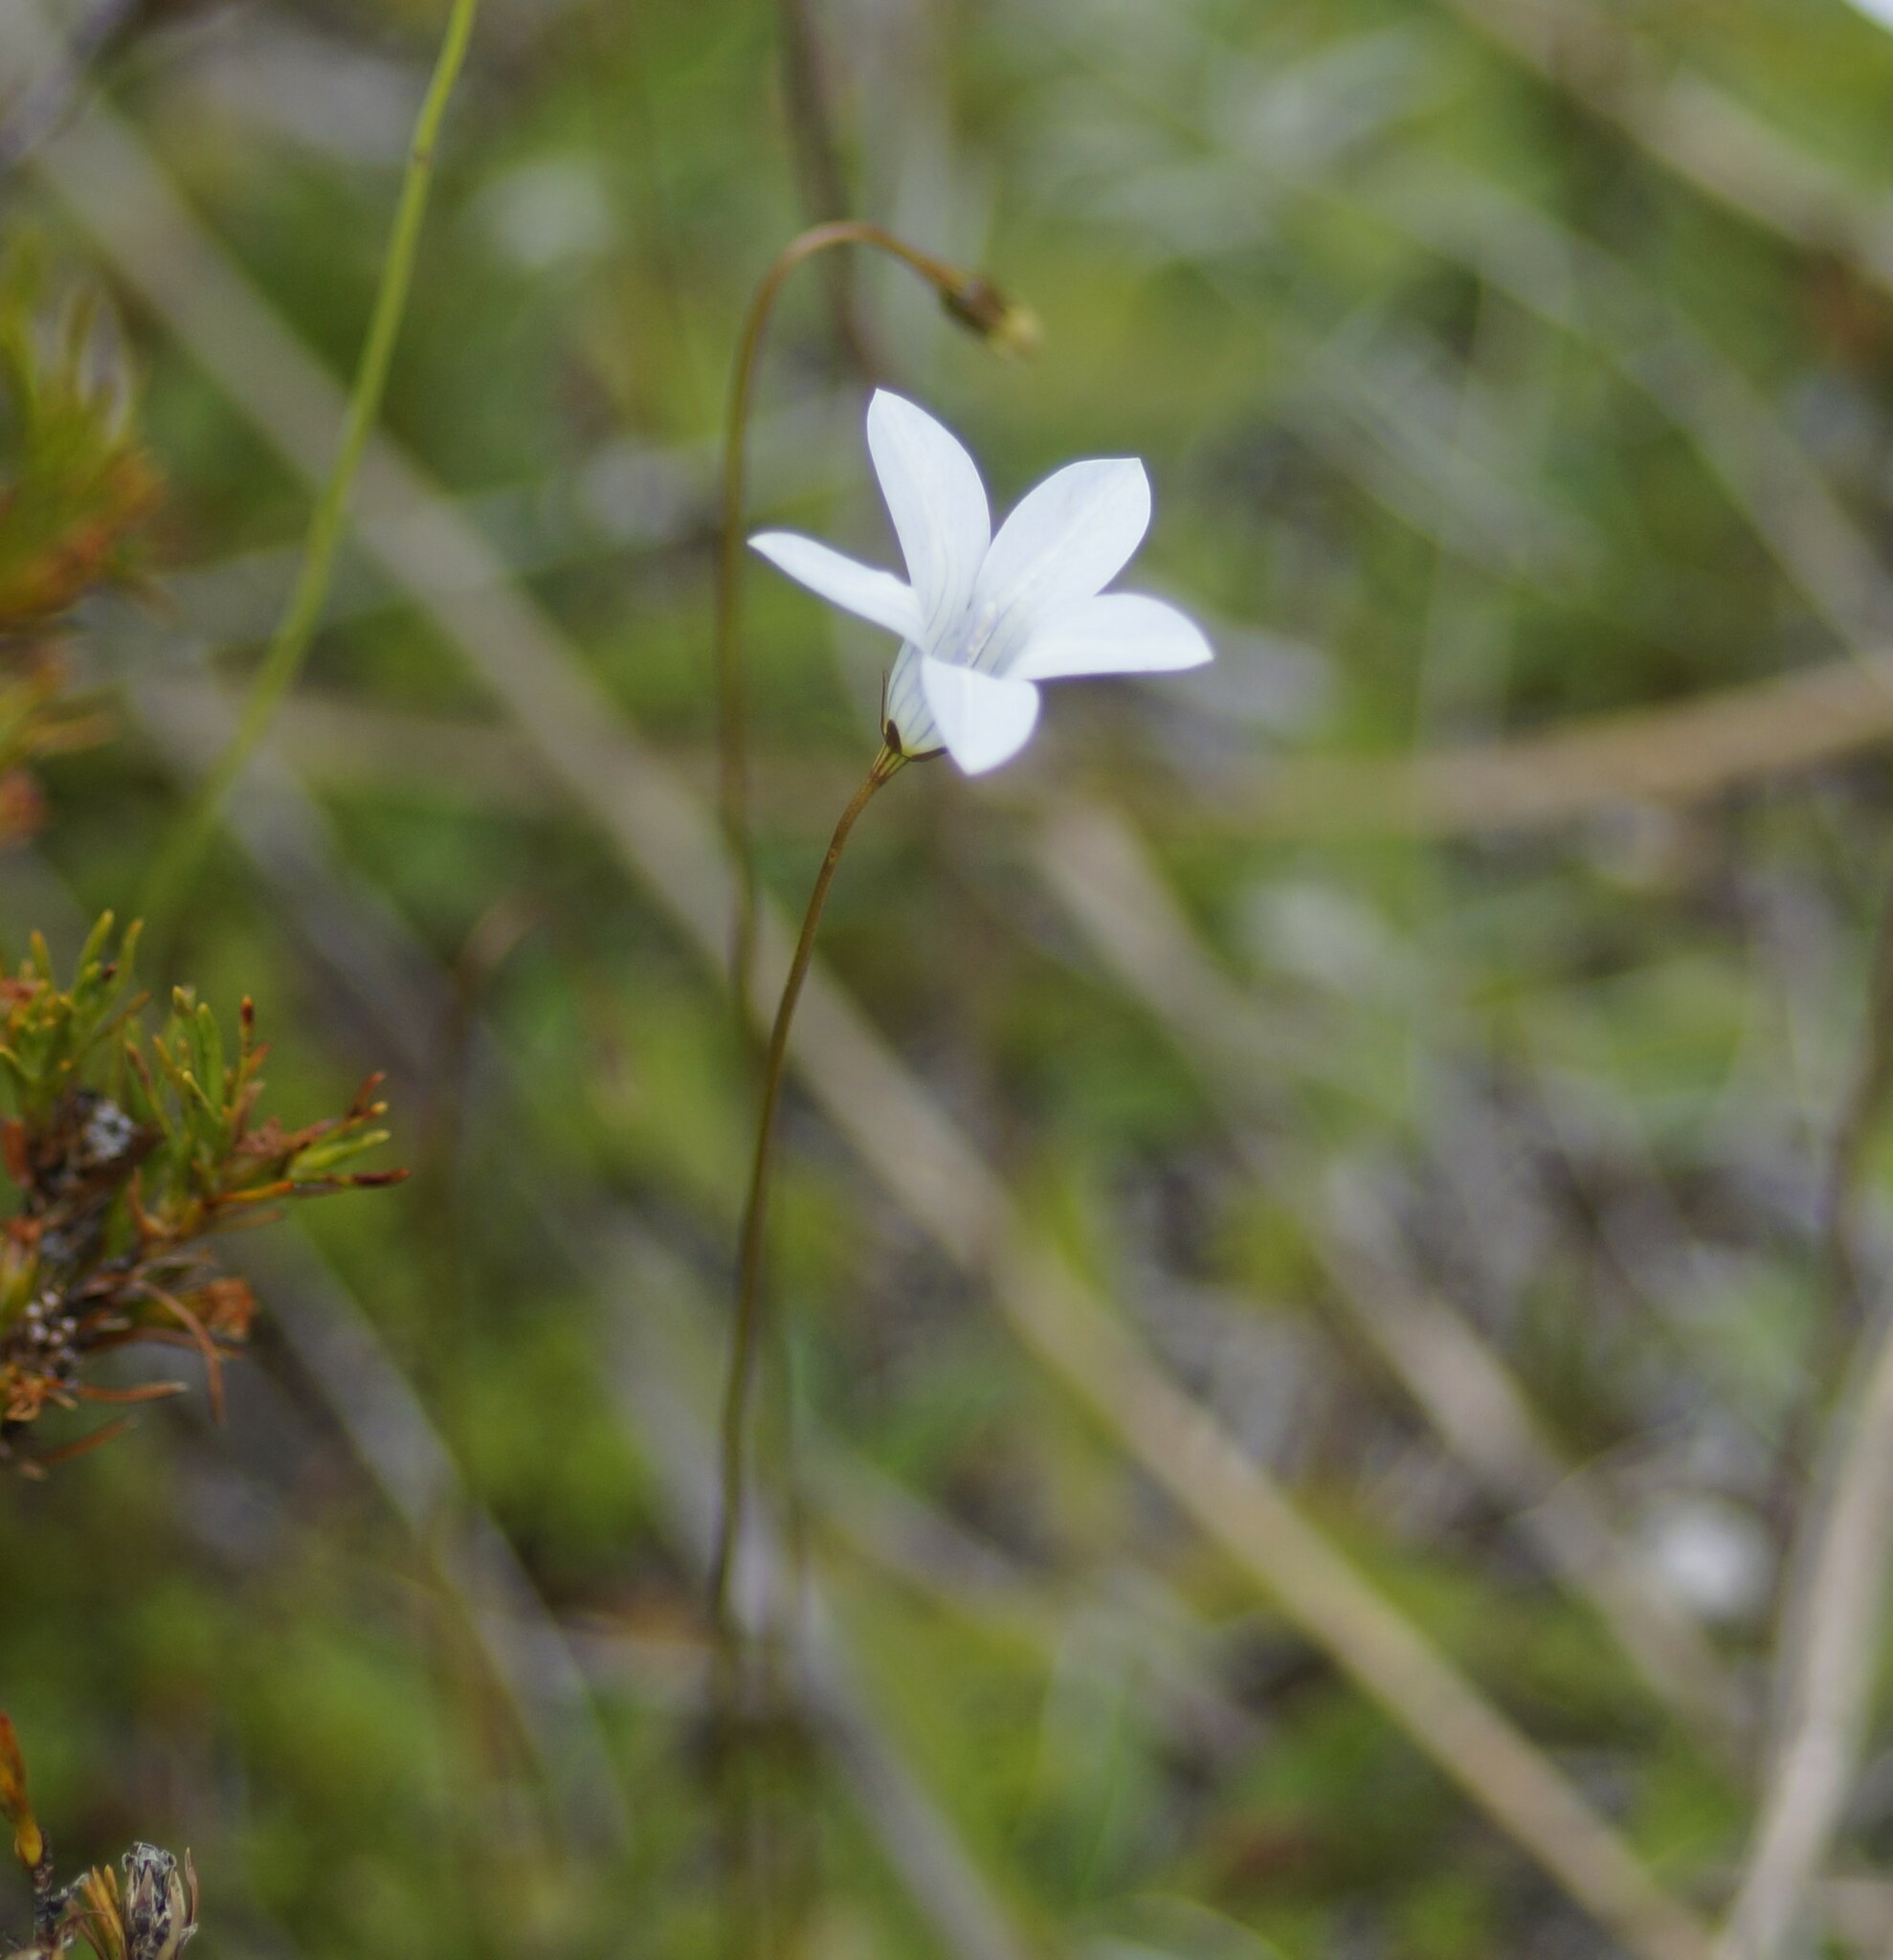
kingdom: Plantae
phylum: Tracheophyta
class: Magnoliopsida
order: Asterales
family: Campanulaceae
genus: Wahlenbergia
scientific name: Wahlenbergia albomarginata
